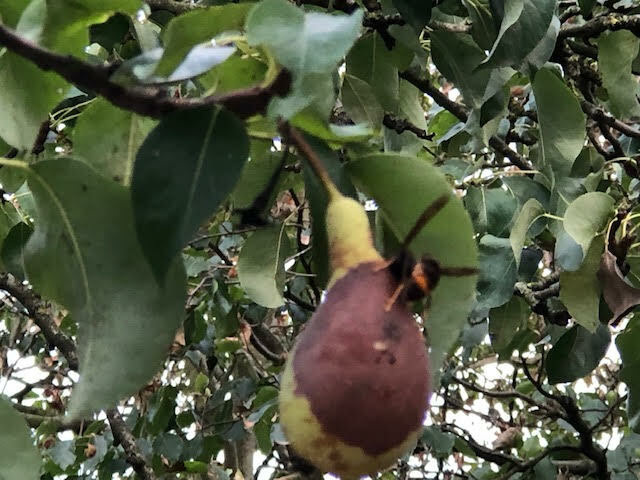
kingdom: Animalia
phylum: Arthropoda
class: Insecta
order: Hymenoptera
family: Vespidae
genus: Vespa
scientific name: Vespa velutina
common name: Asian hornet
